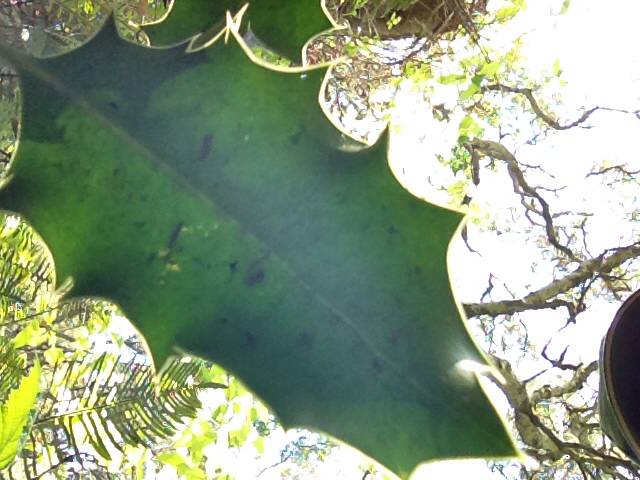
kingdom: Plantae
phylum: Tracheophyta
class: Magnoliopsida
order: Aquifoliales
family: Aquifoliaceae
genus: Ilex
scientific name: Ilex aquifolium
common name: English holly
